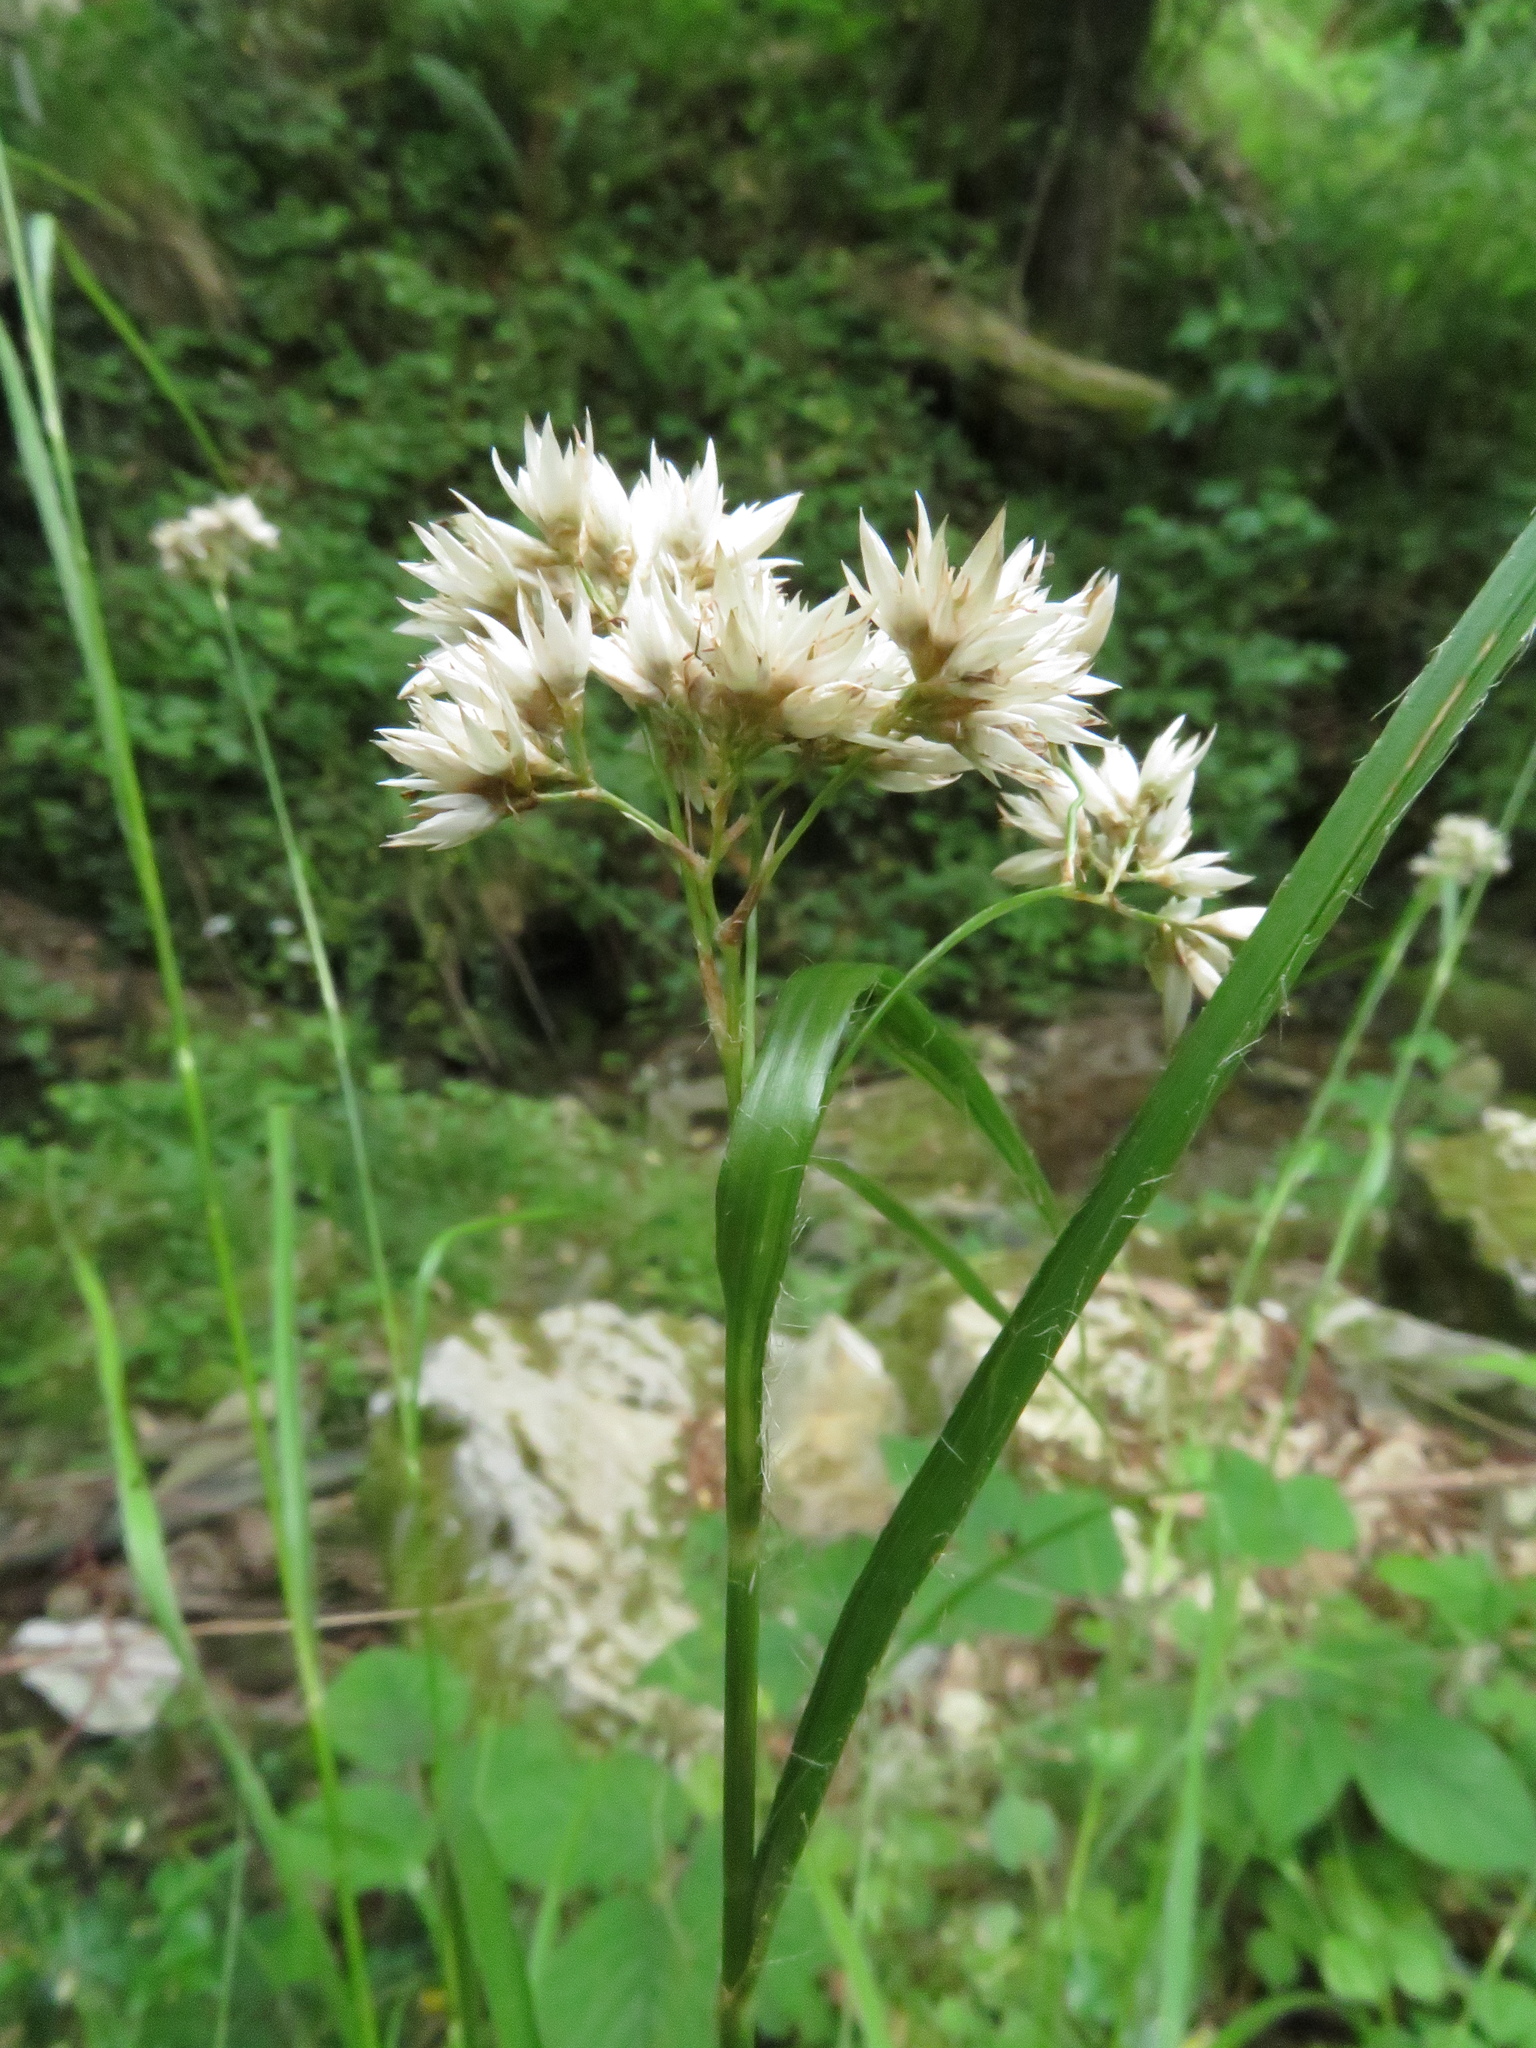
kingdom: Plantae
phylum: Tracheophyta
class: Liliopsida
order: Poales
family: Juncaceae
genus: Luzula
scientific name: Luzula nivea
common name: Snow-white wood-rush
